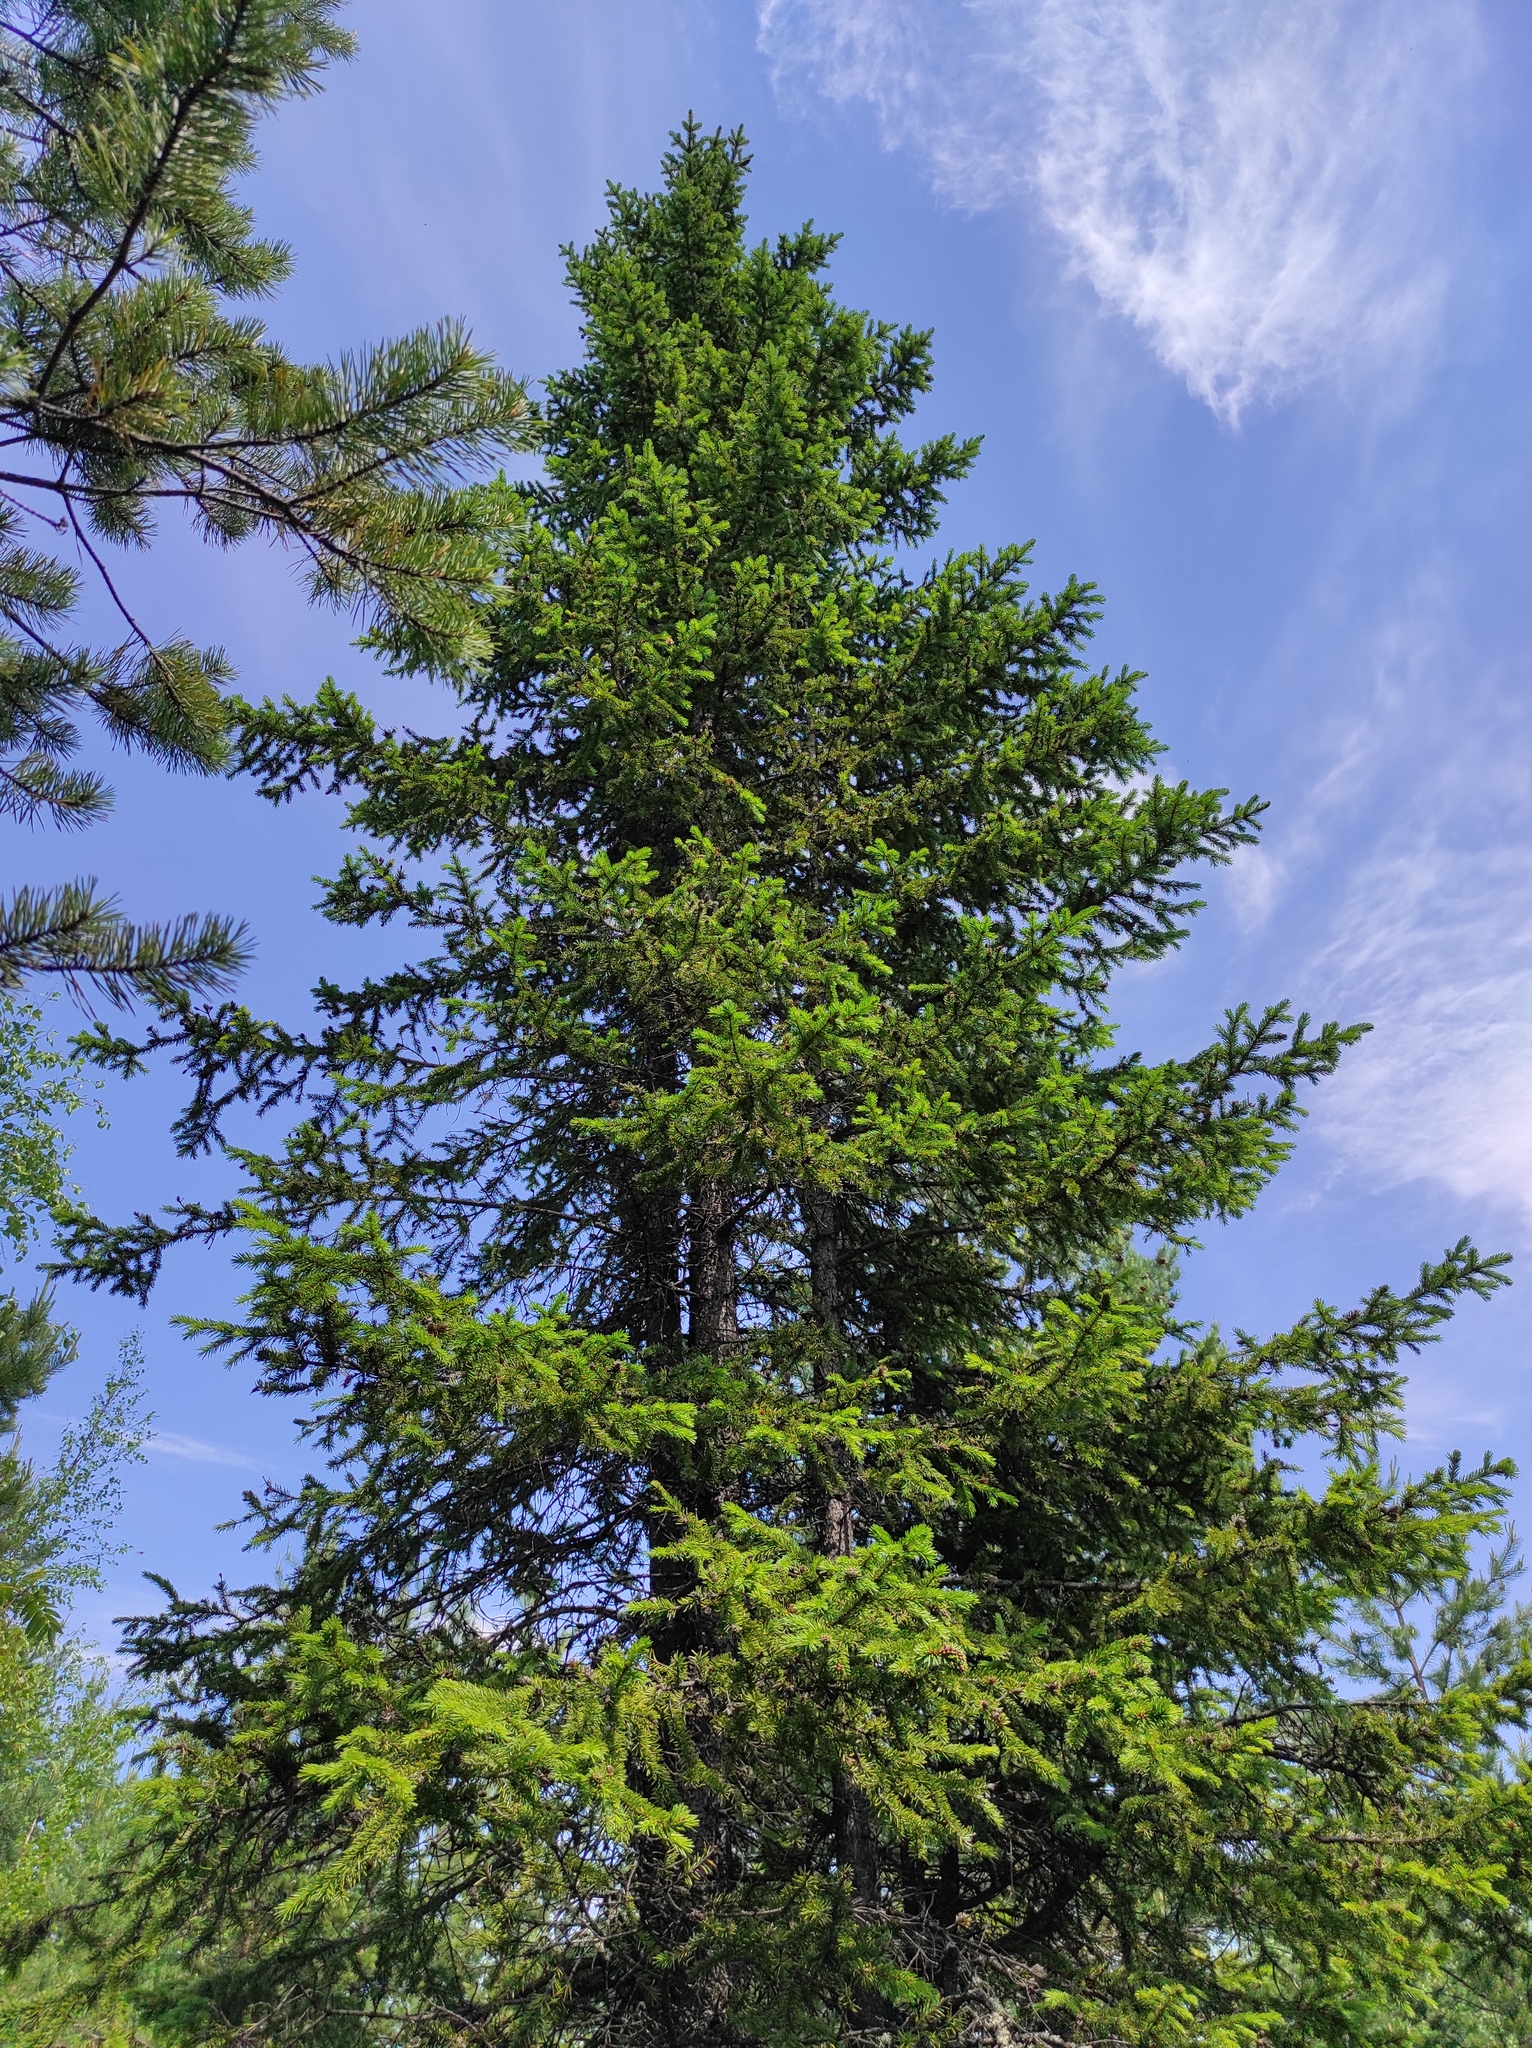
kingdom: Plantae
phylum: Tracheophyta
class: Pinopsida
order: Pinales
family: Pinaceae
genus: Picea
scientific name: Picea obovata
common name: Siberian spruce
